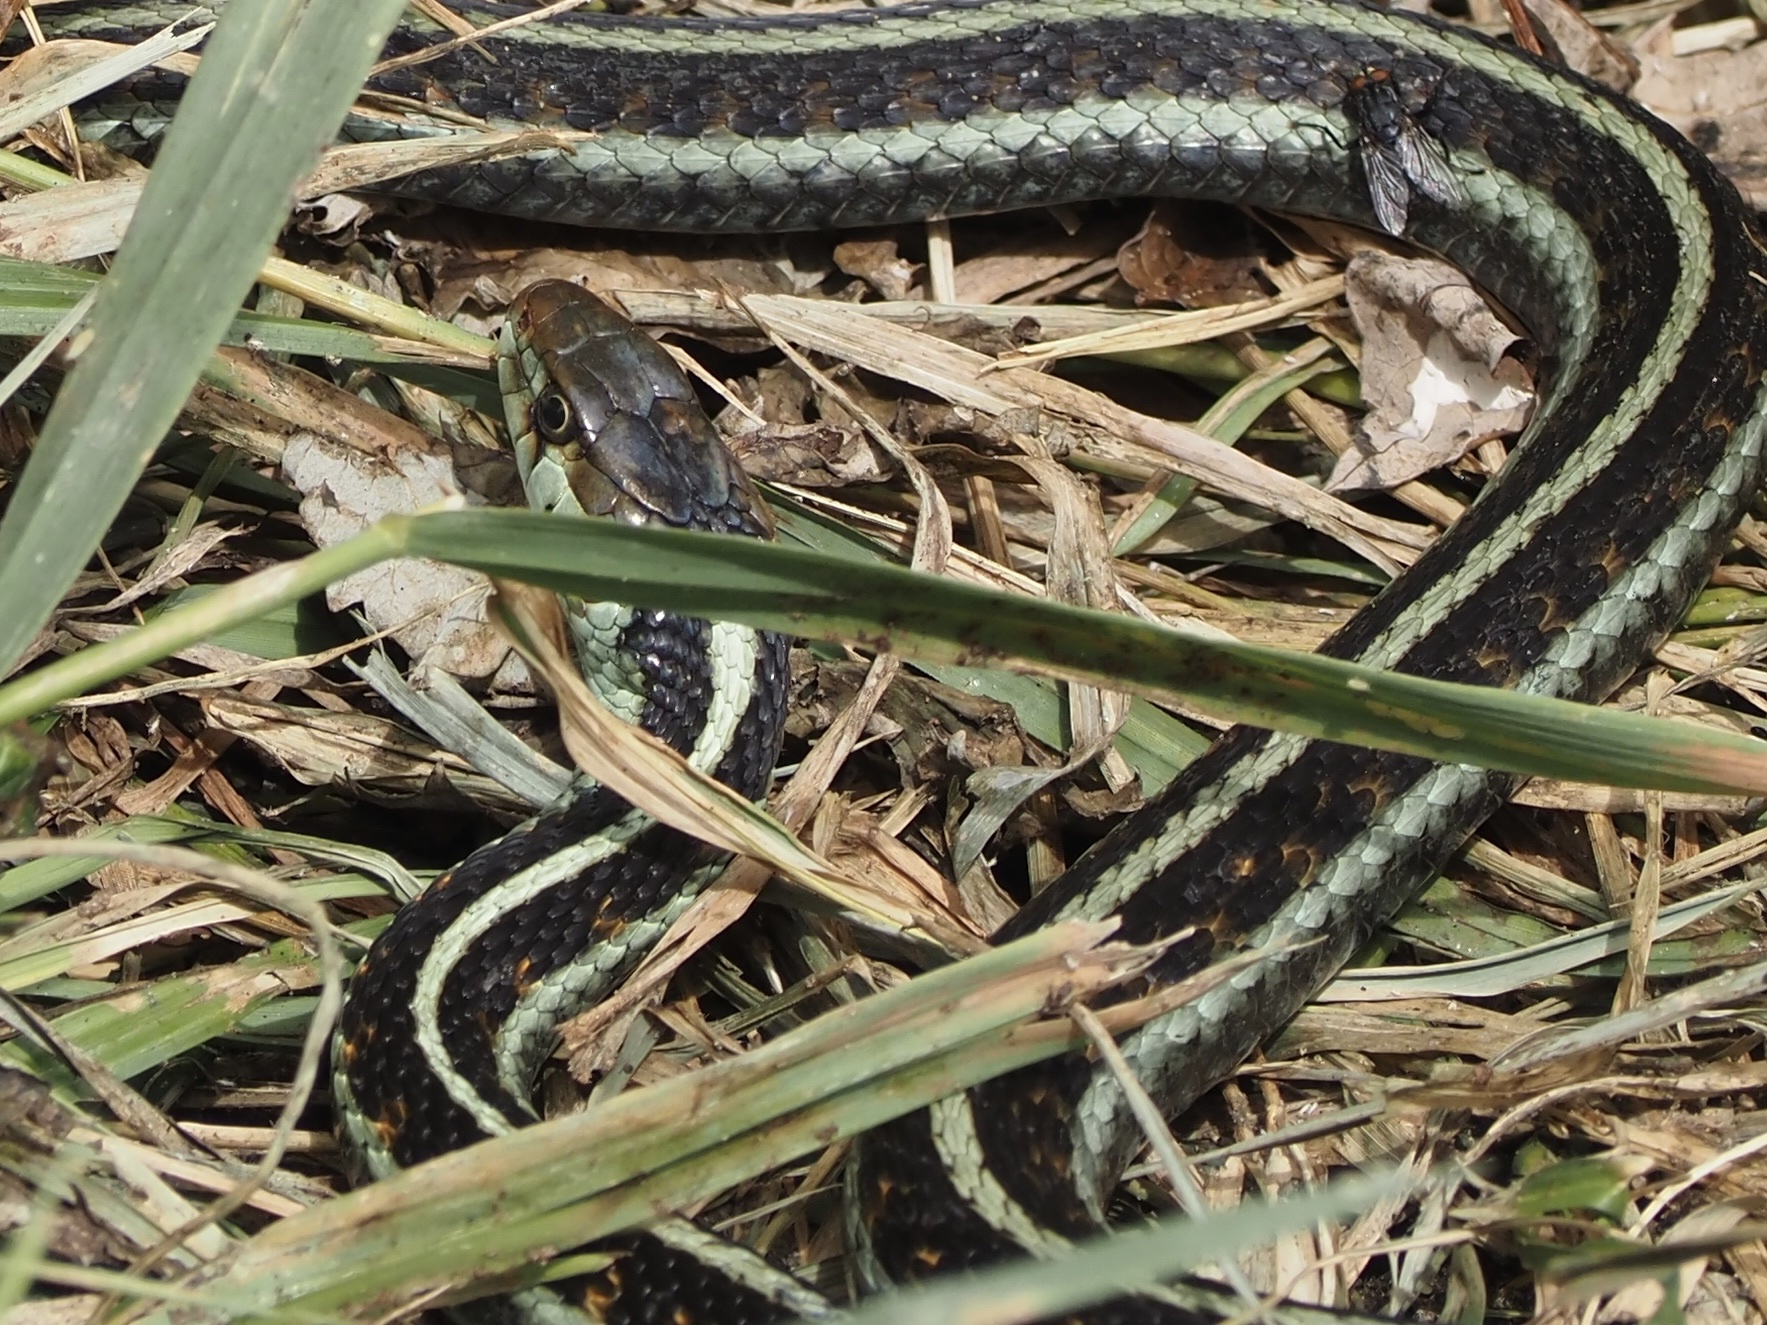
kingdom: Animalia
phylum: Chordata
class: Squamata
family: Colubridae
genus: Thamnophis
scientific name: Thamnophis sirtalis
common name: Common garter snake
